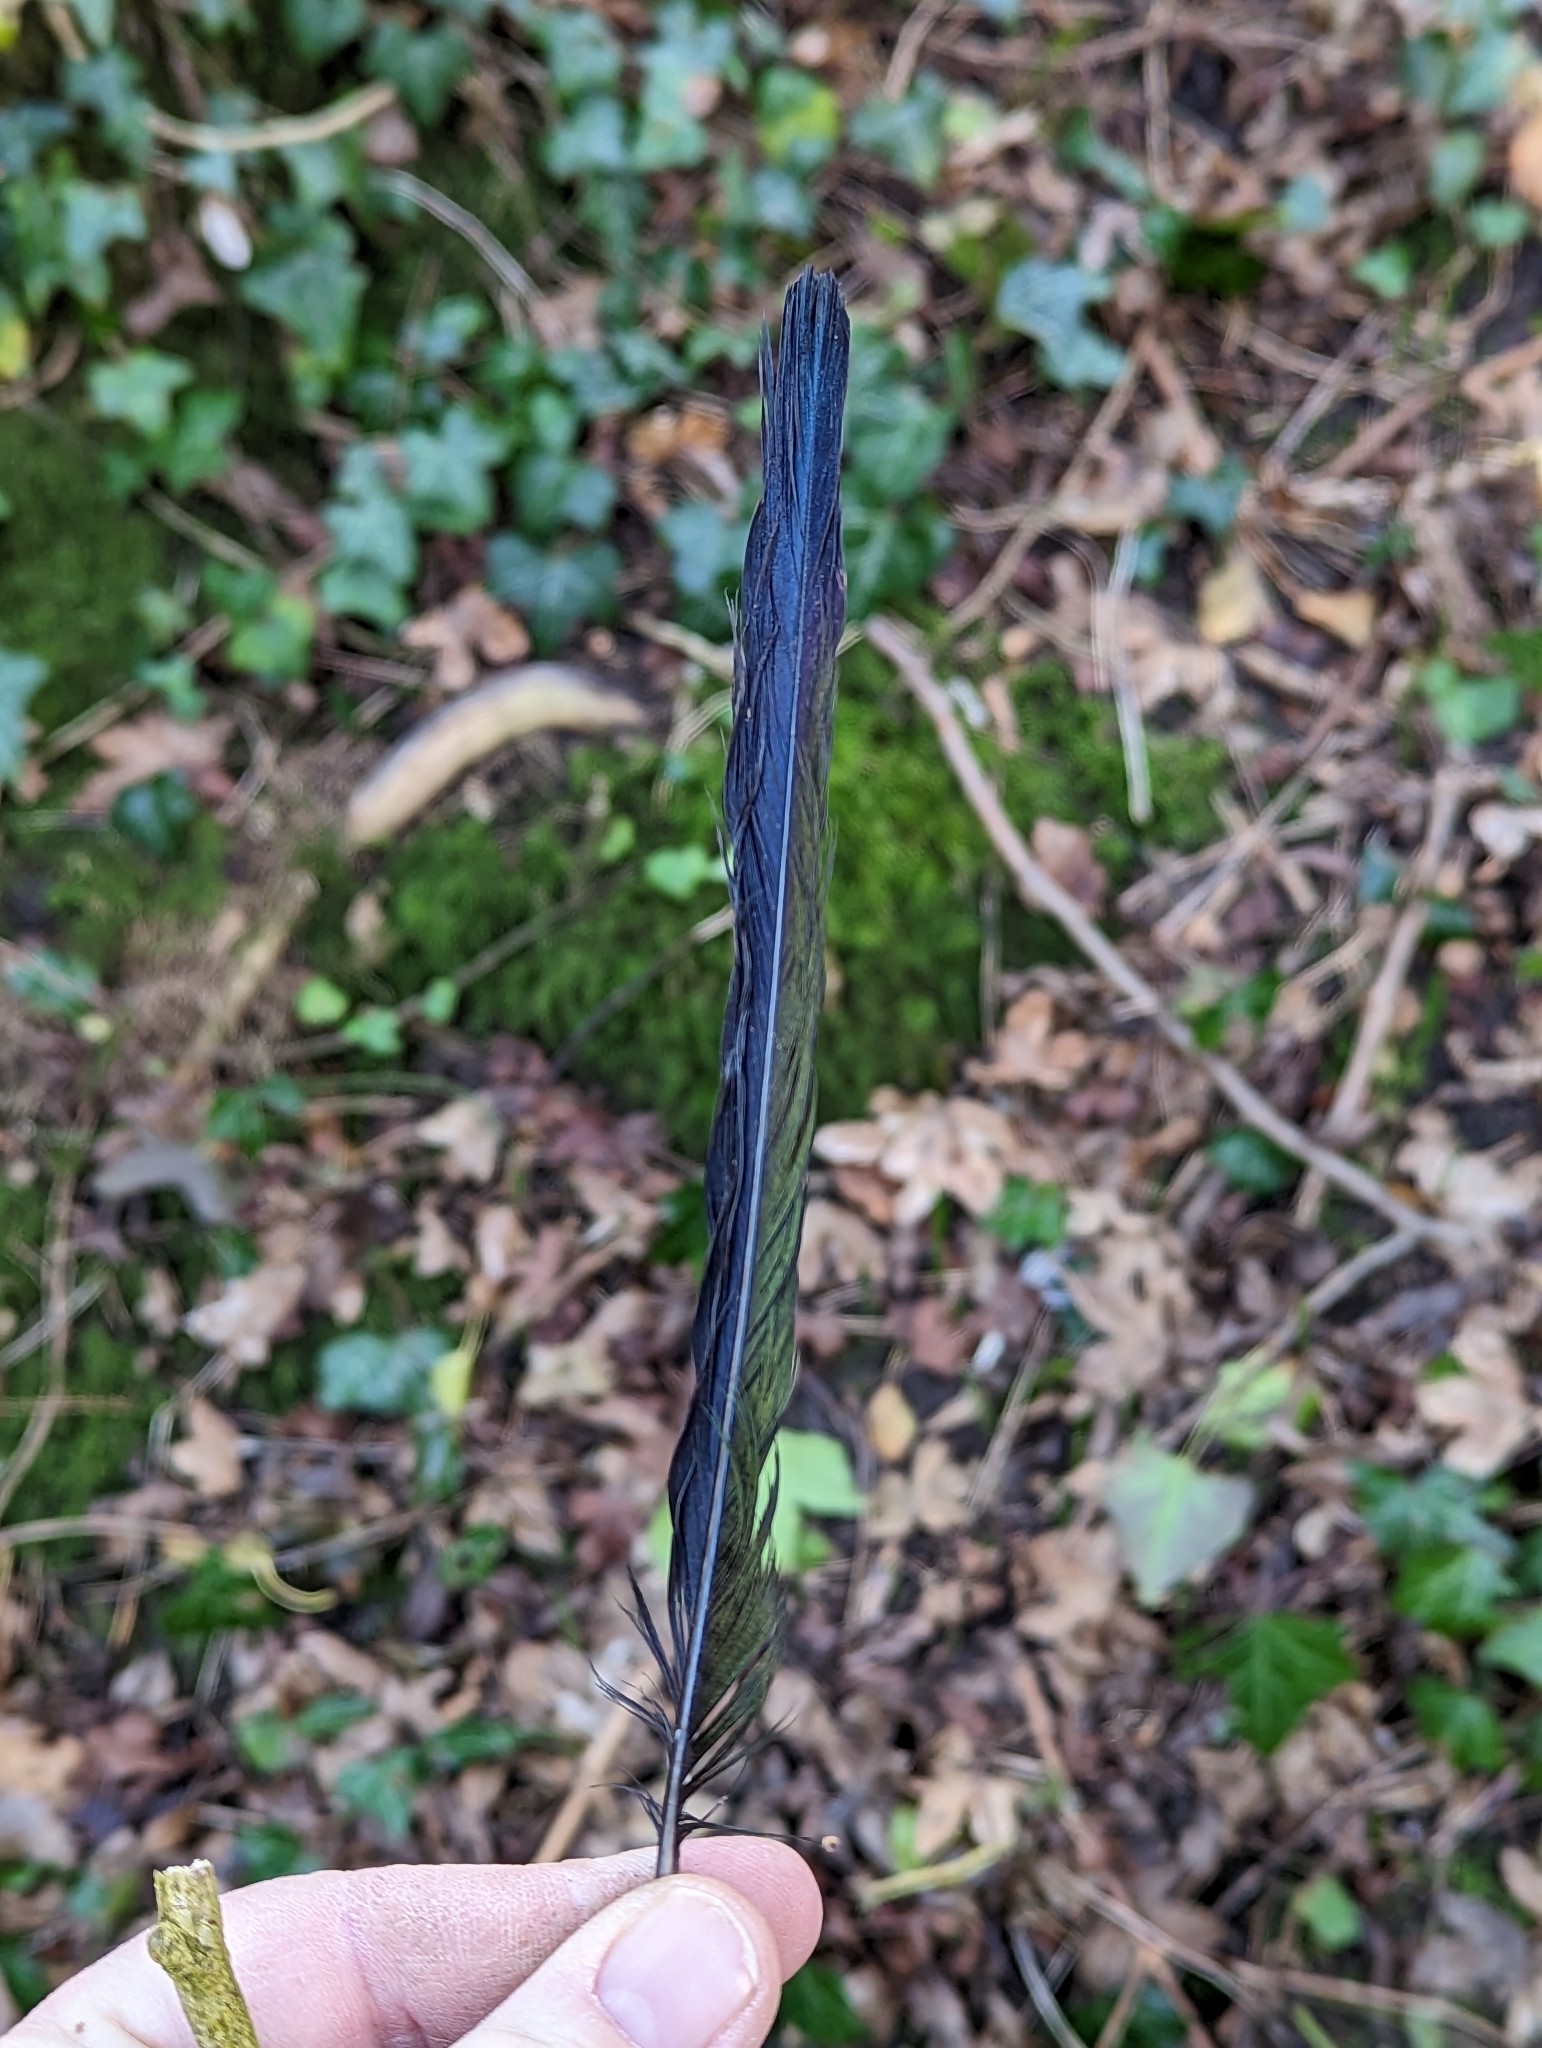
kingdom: Animalia
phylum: Chordata
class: Aves
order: Passeriformes
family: Corvidae
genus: Pica
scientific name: Pica pica
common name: Eurasian magpie
